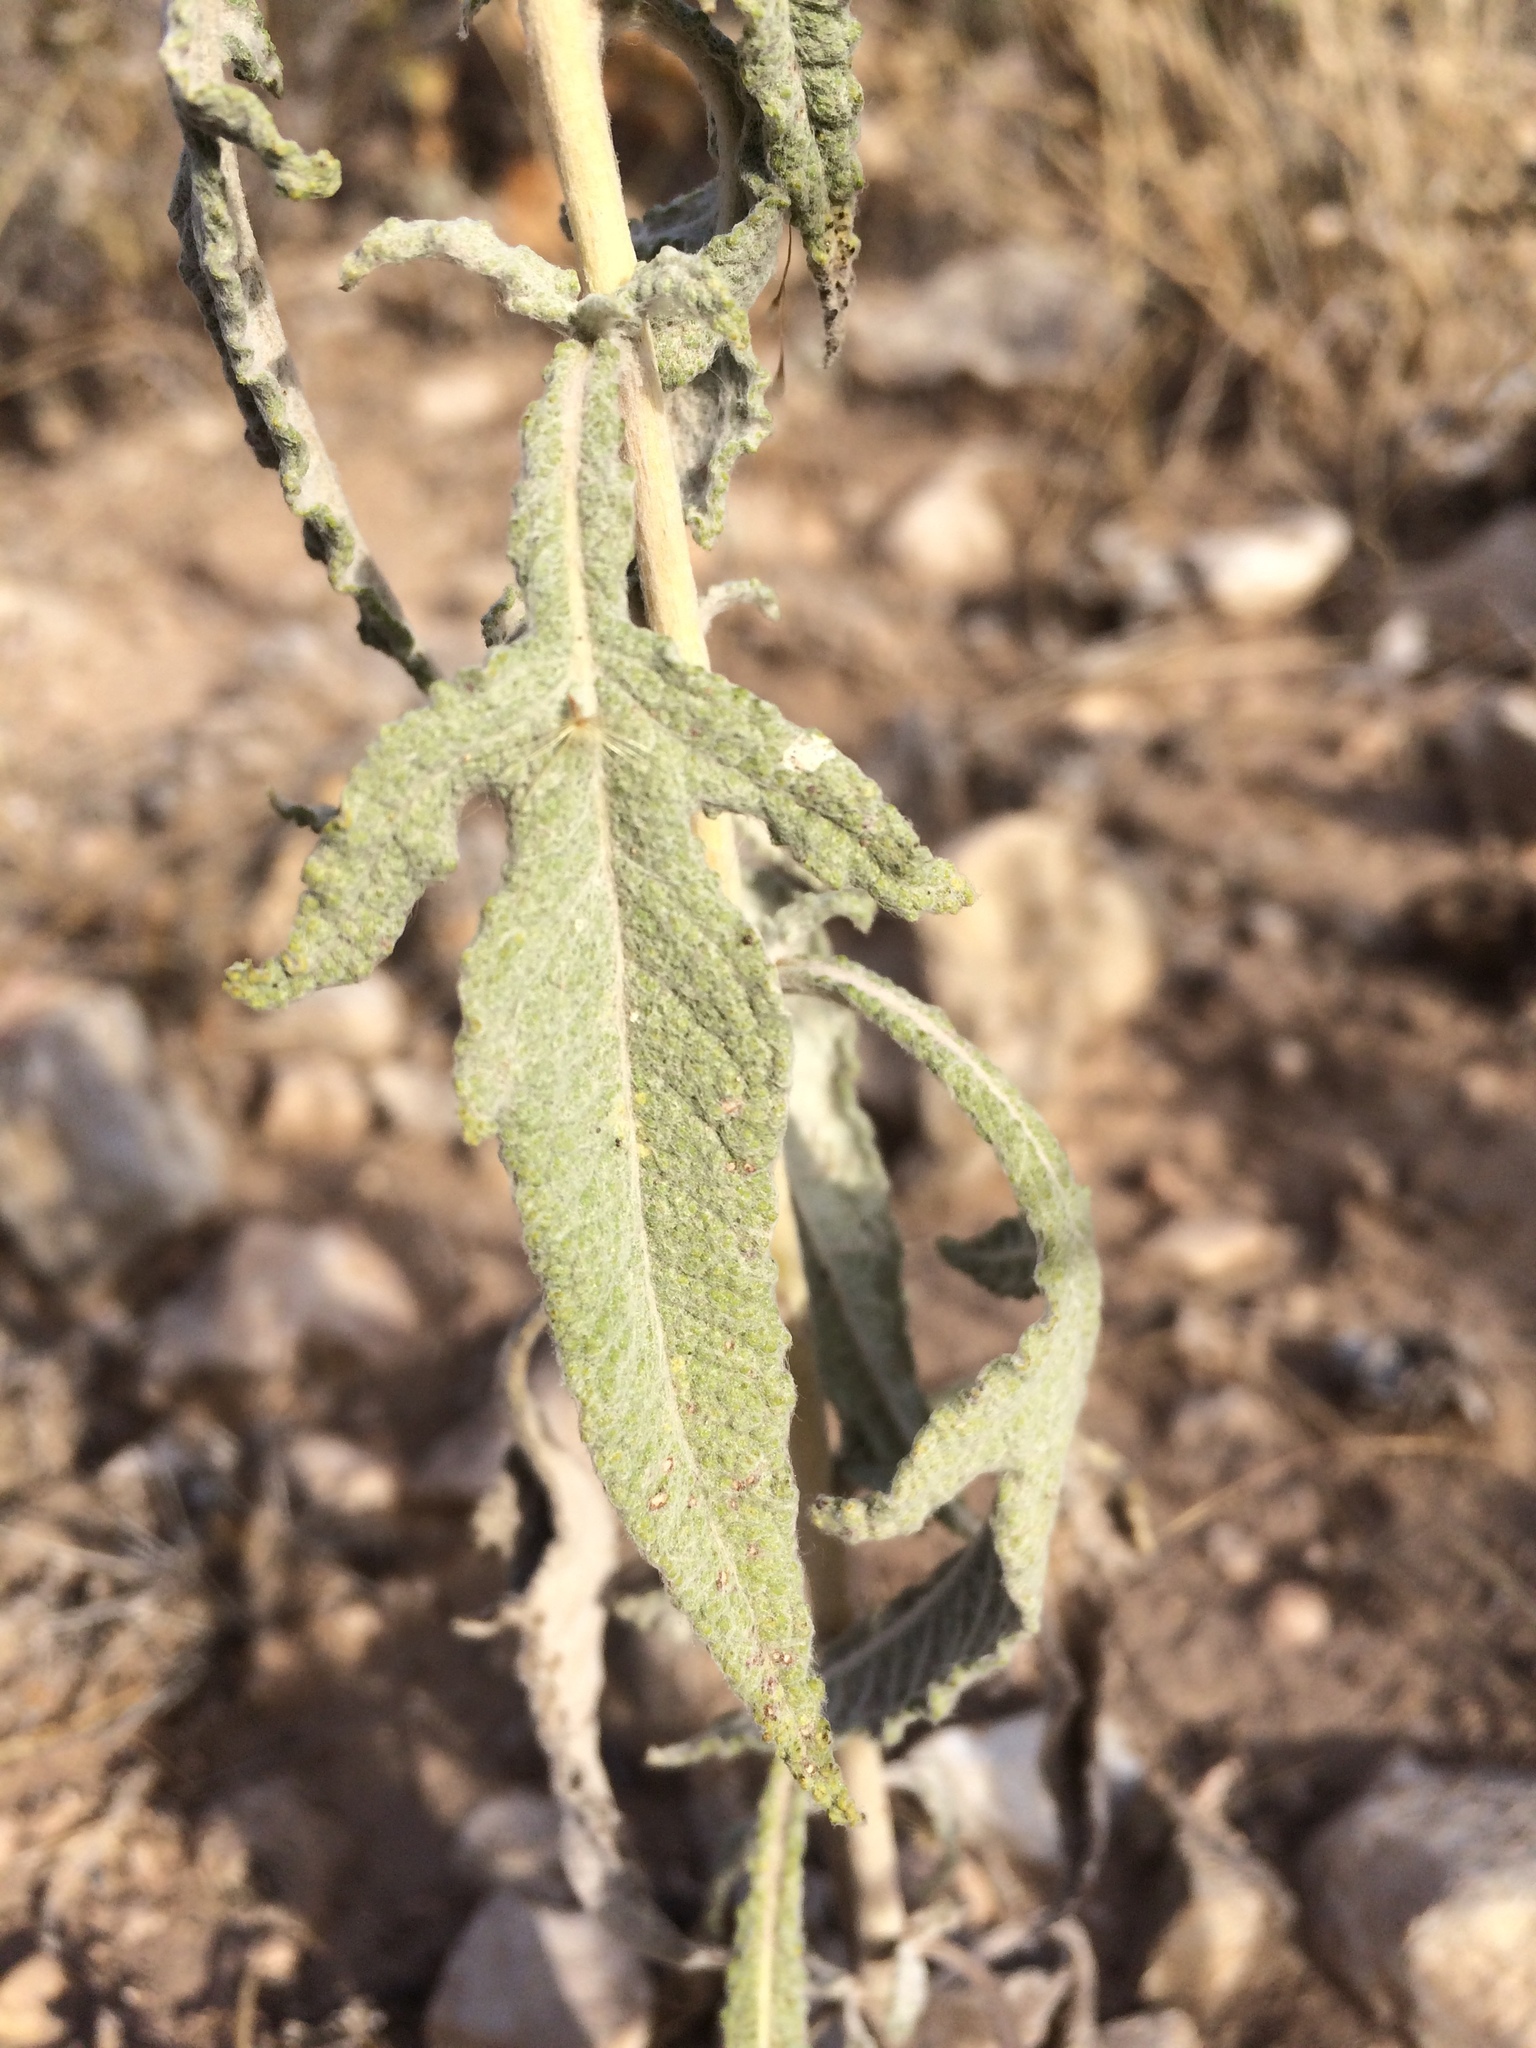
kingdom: Plantae
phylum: Tracheophyta
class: Magnoliopsida
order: Asterales
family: Asteraceae
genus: Euphrosyne
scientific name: Euphrosyne dealbata
